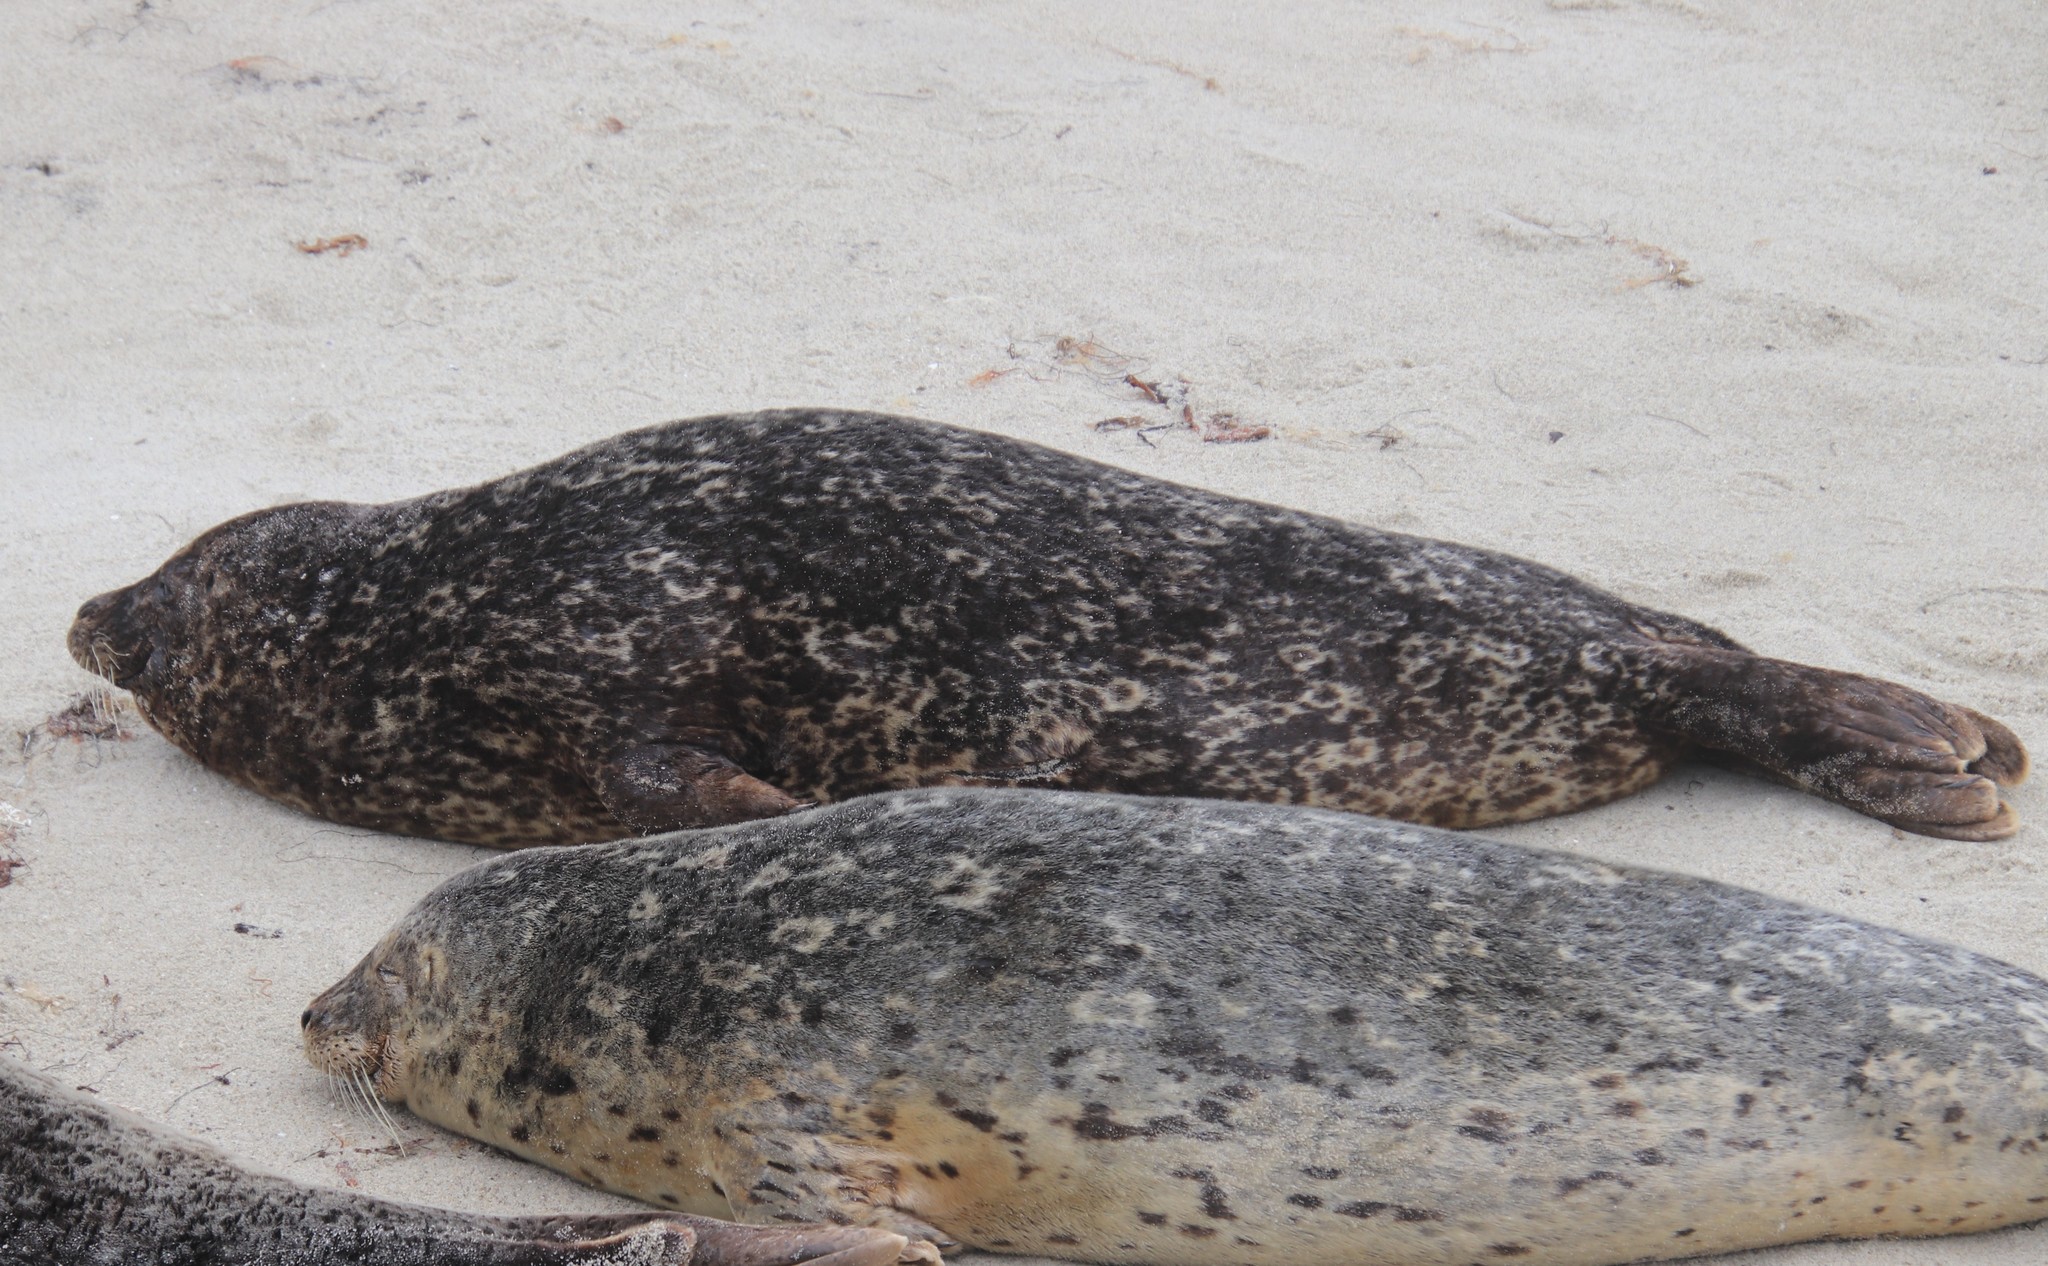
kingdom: Animalia
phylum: Chordata
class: Mammalia
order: Carnivora
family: Phocidae
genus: Phoca
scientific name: Phoca vitulina
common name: Harbor seal
